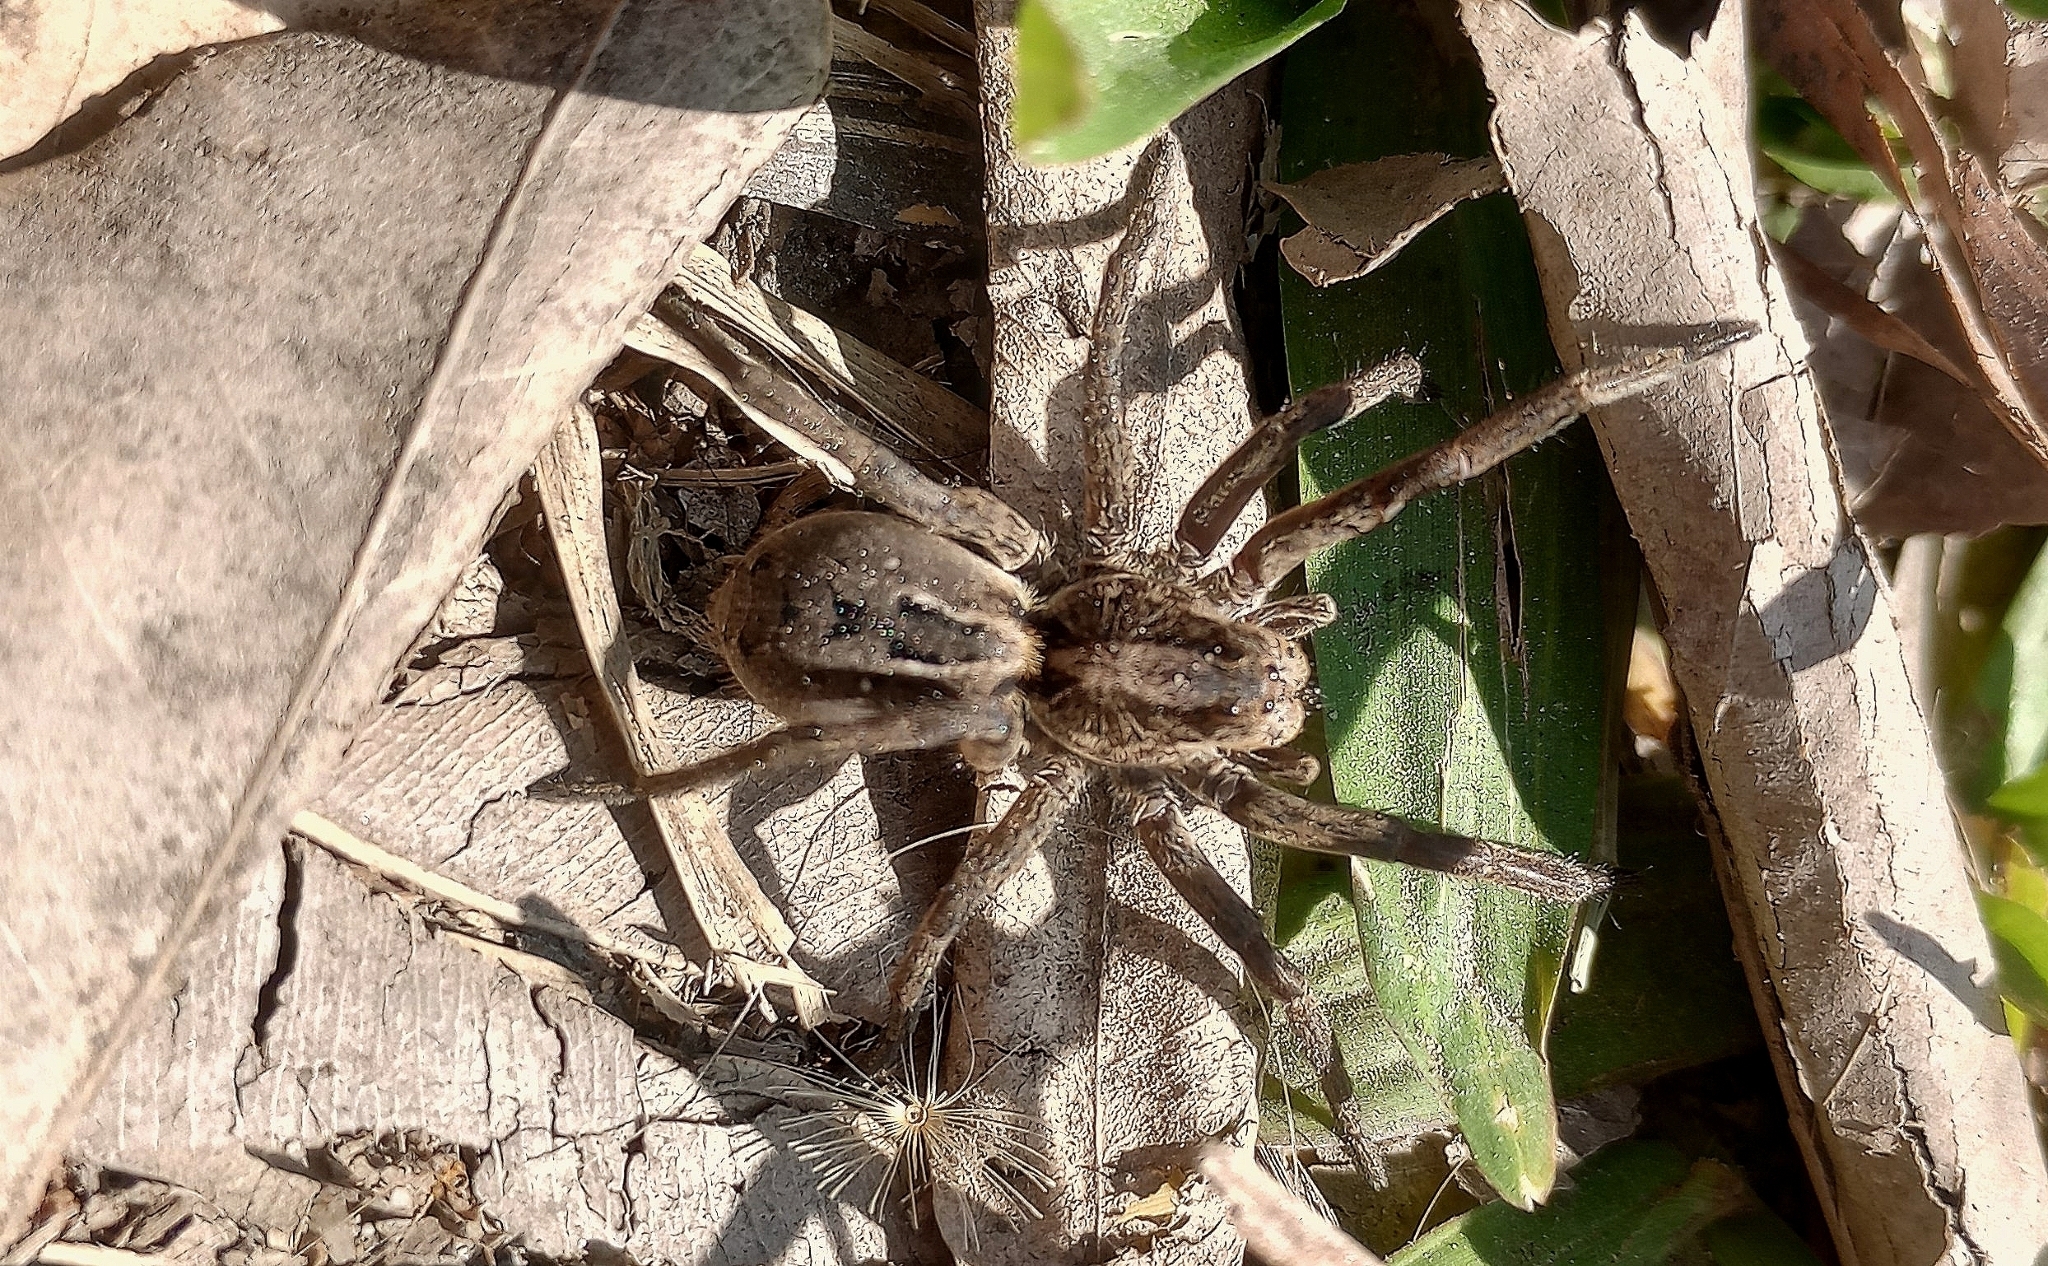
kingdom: Animalia
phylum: Arthropoda
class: Arachnida
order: Araneae
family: Lycosidae
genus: Lycosa
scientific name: Lycosa erythrognatha
